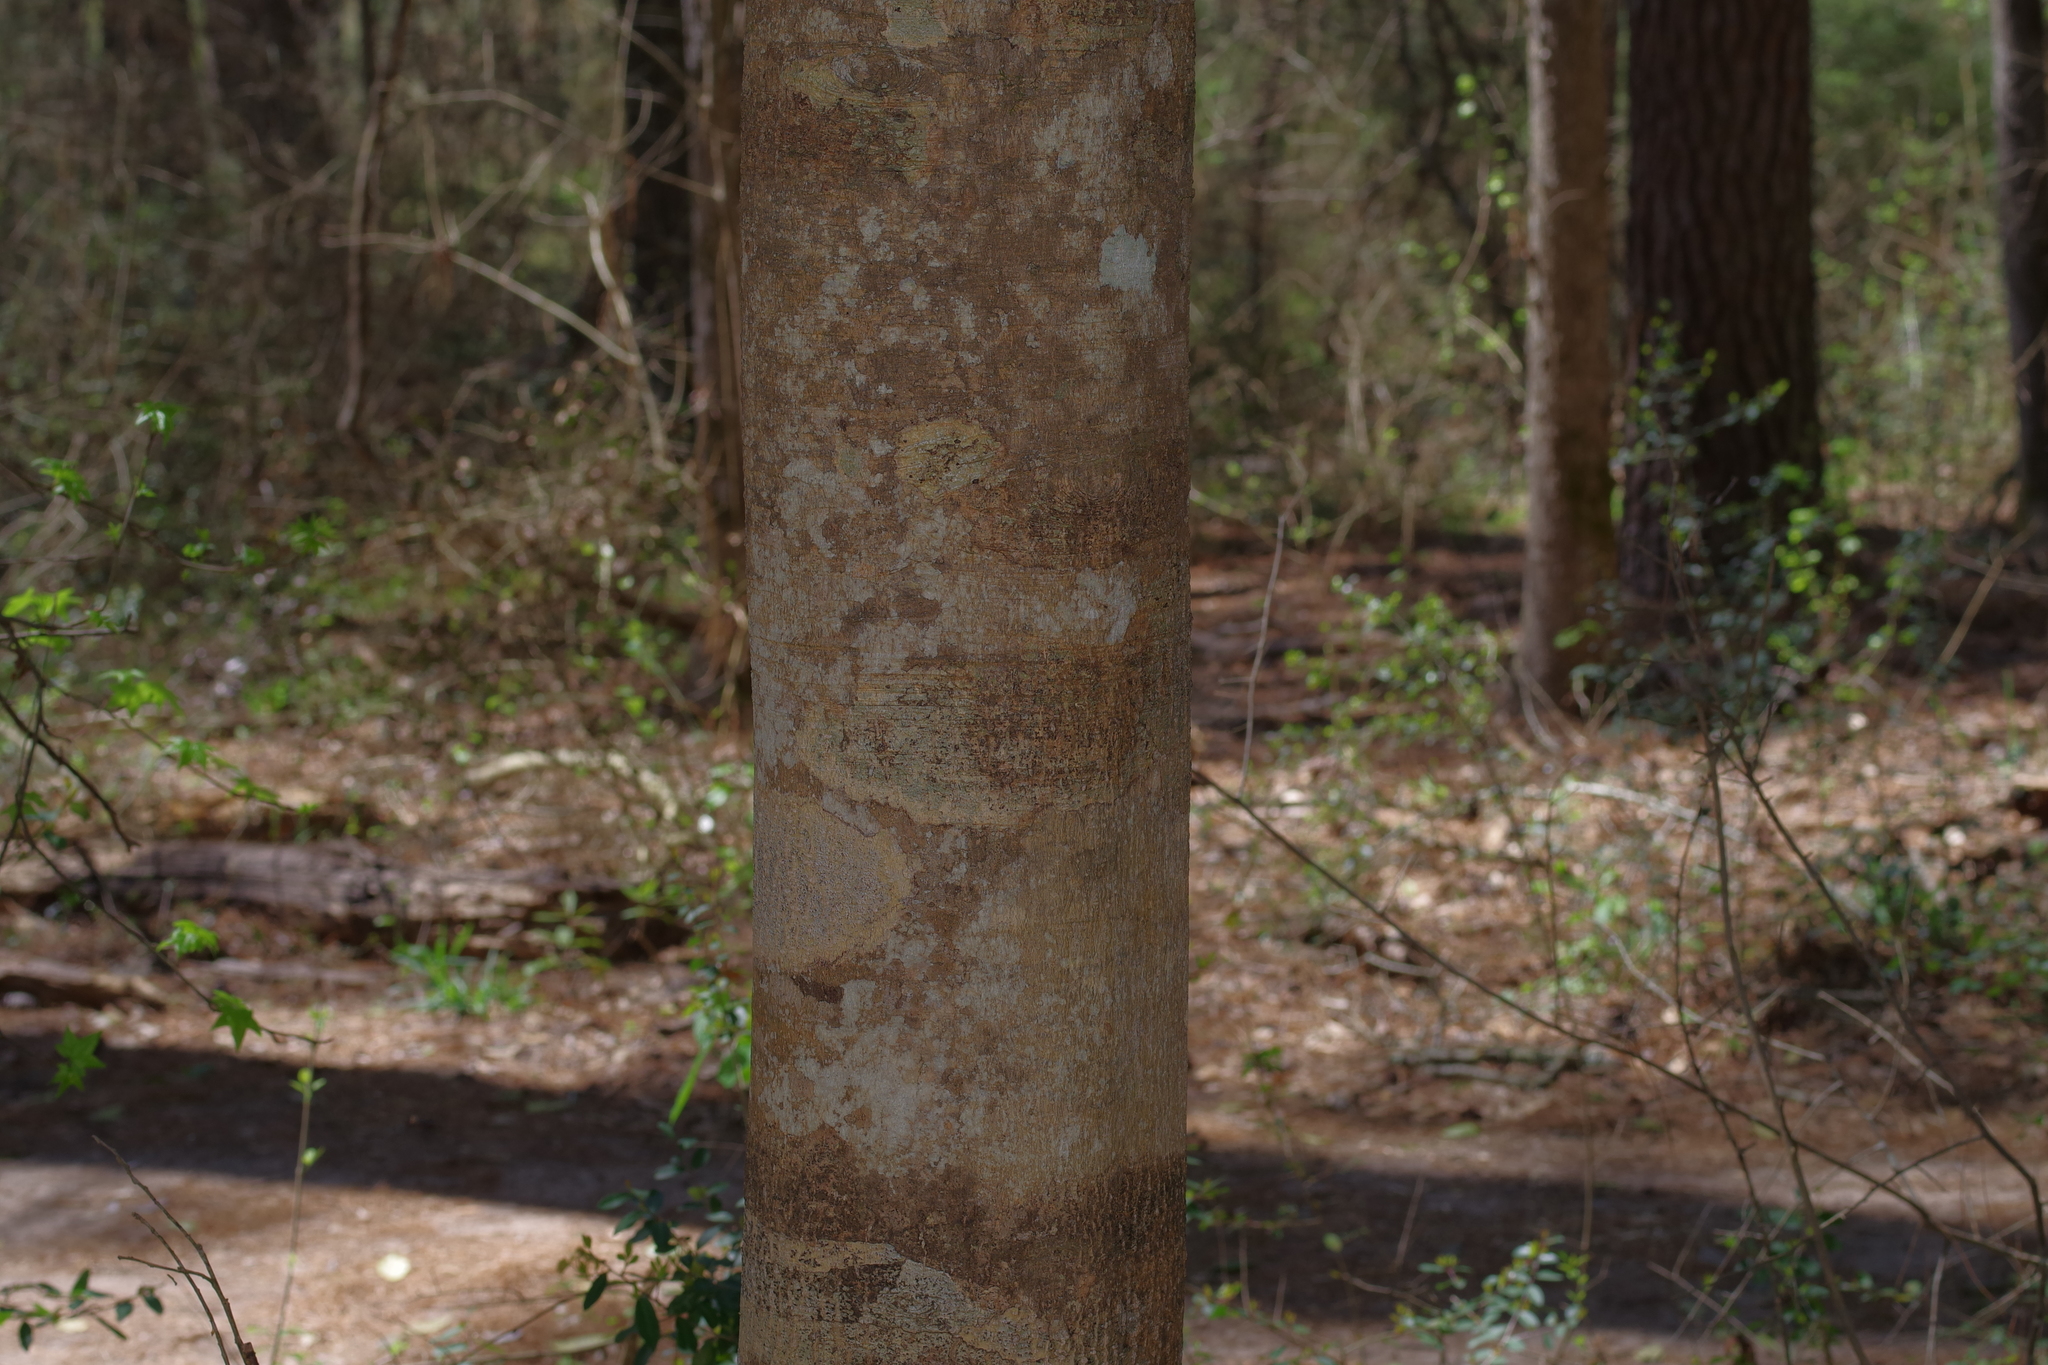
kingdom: Plantae
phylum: Tracheophyta
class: Magnoliopsida
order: Aquifoliales
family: Aquifoliaceae
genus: Ilex
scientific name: Ilex opaca
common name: American holly
